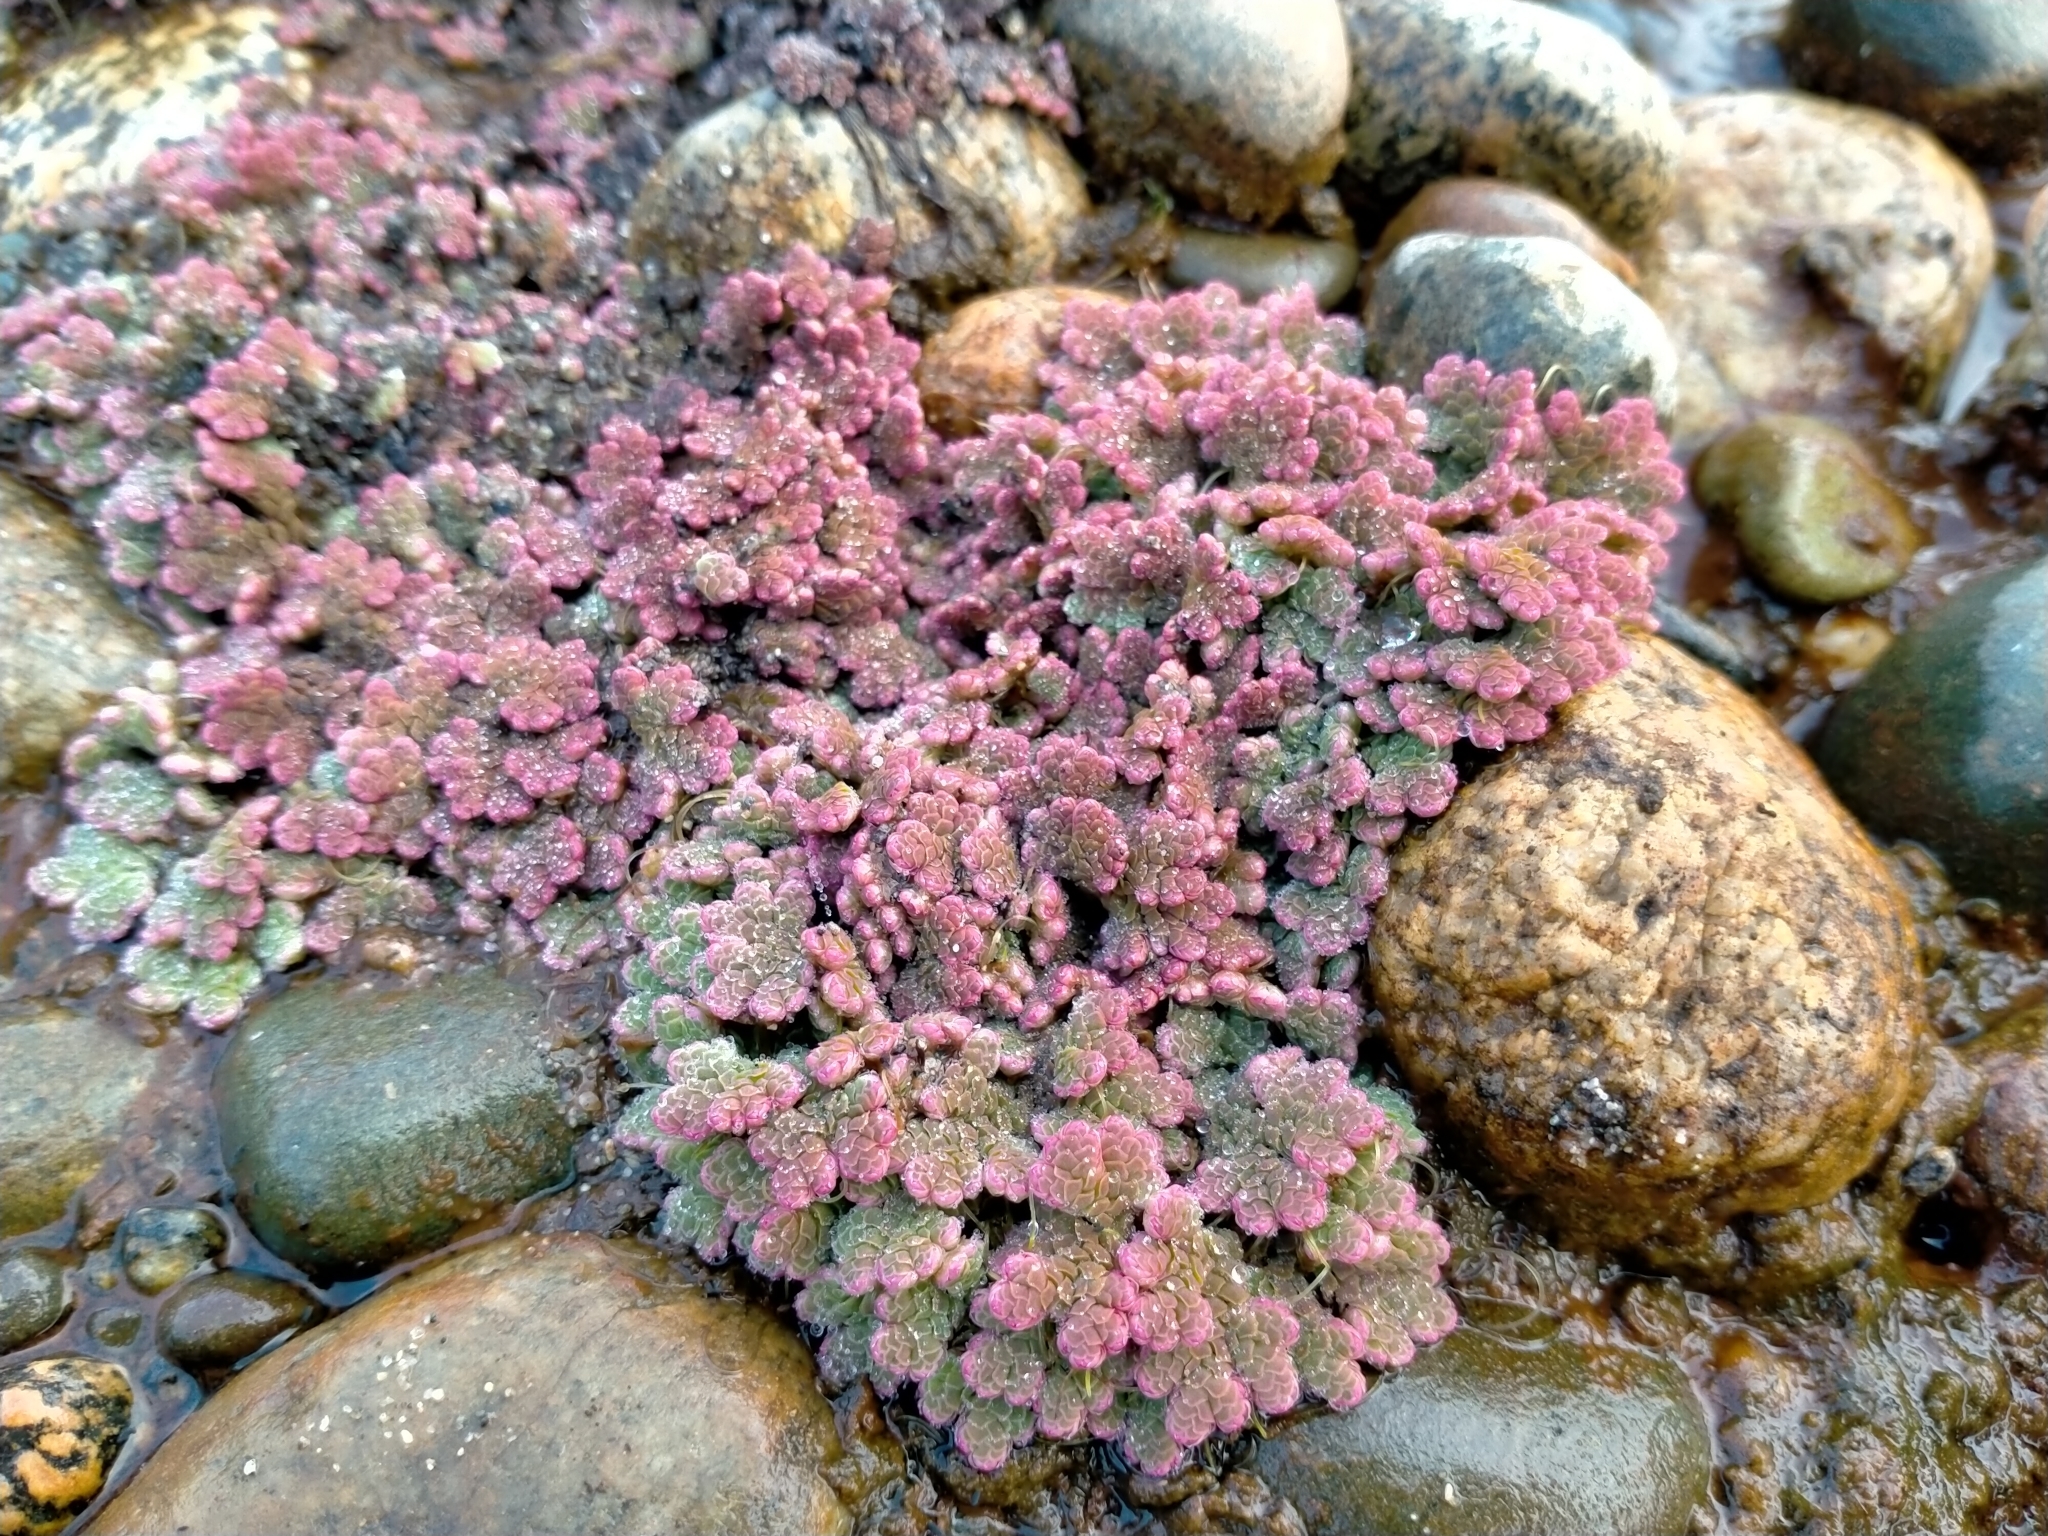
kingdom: Plantae
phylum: Tracheophyta
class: Polypodiopsida
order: Salviniales
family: Salviniaceae
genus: Azolla
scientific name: Azolla rubra
